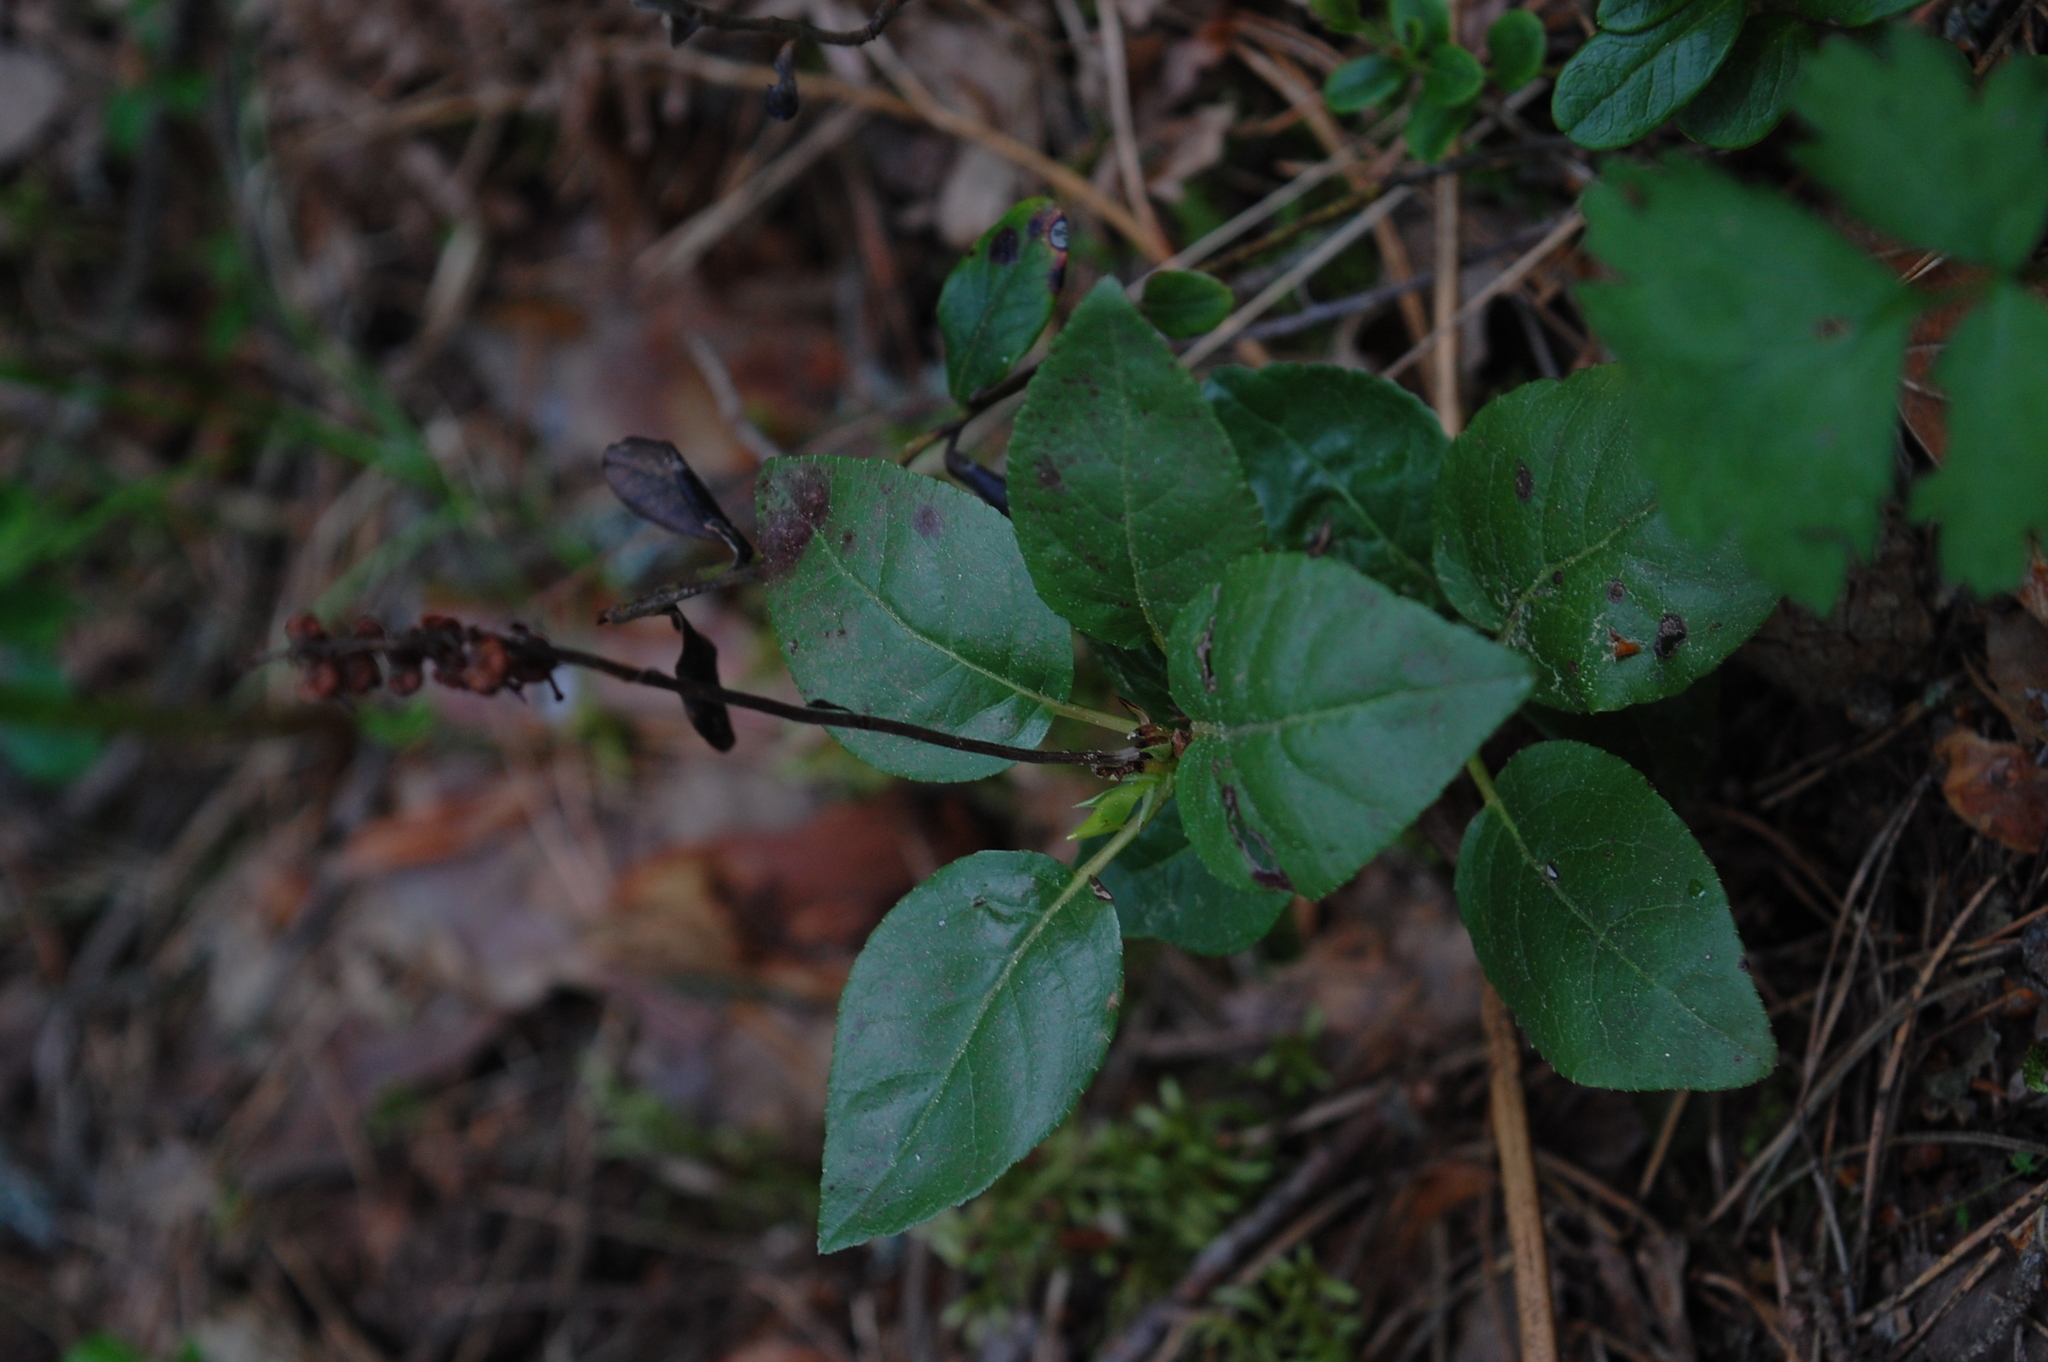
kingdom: Plantae
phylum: Tracheophyta
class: Magnoliopsida
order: Ericales
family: Ericaceae
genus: Orthilia
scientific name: Orthilia secunda
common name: One-sided orthilia
